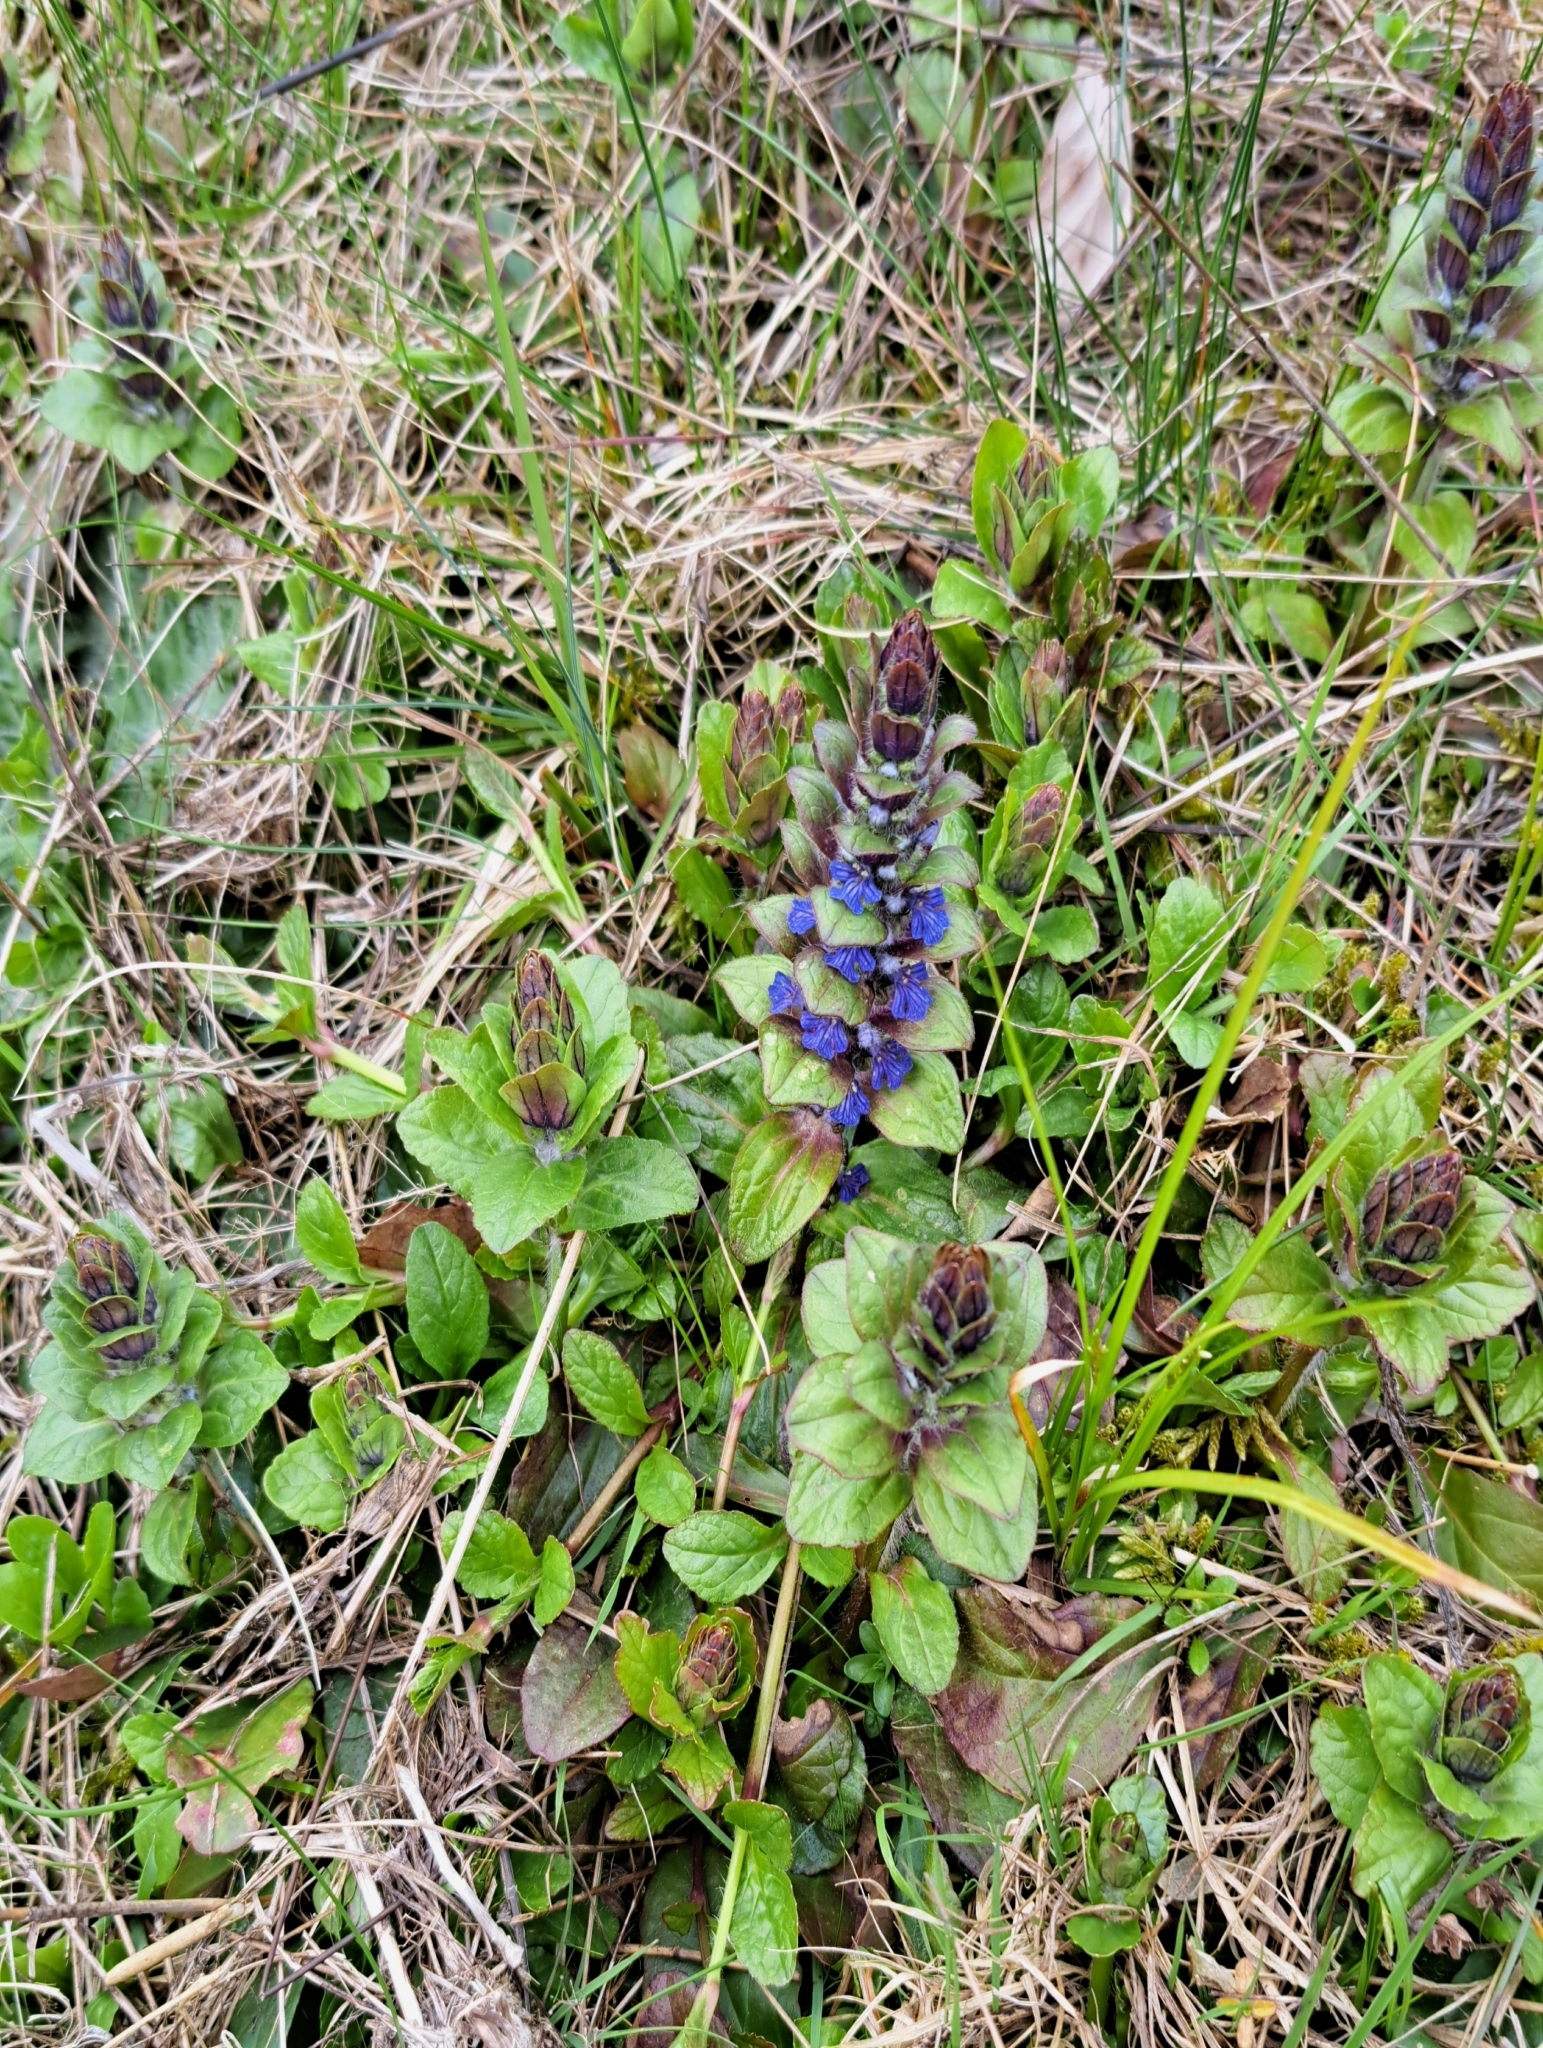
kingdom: Plantae
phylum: Tracheophyta
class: Magnoliopsida
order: Lamiales
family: Lamiaceae
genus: Ajuga
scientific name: Ajuga reptans
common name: Bugle
